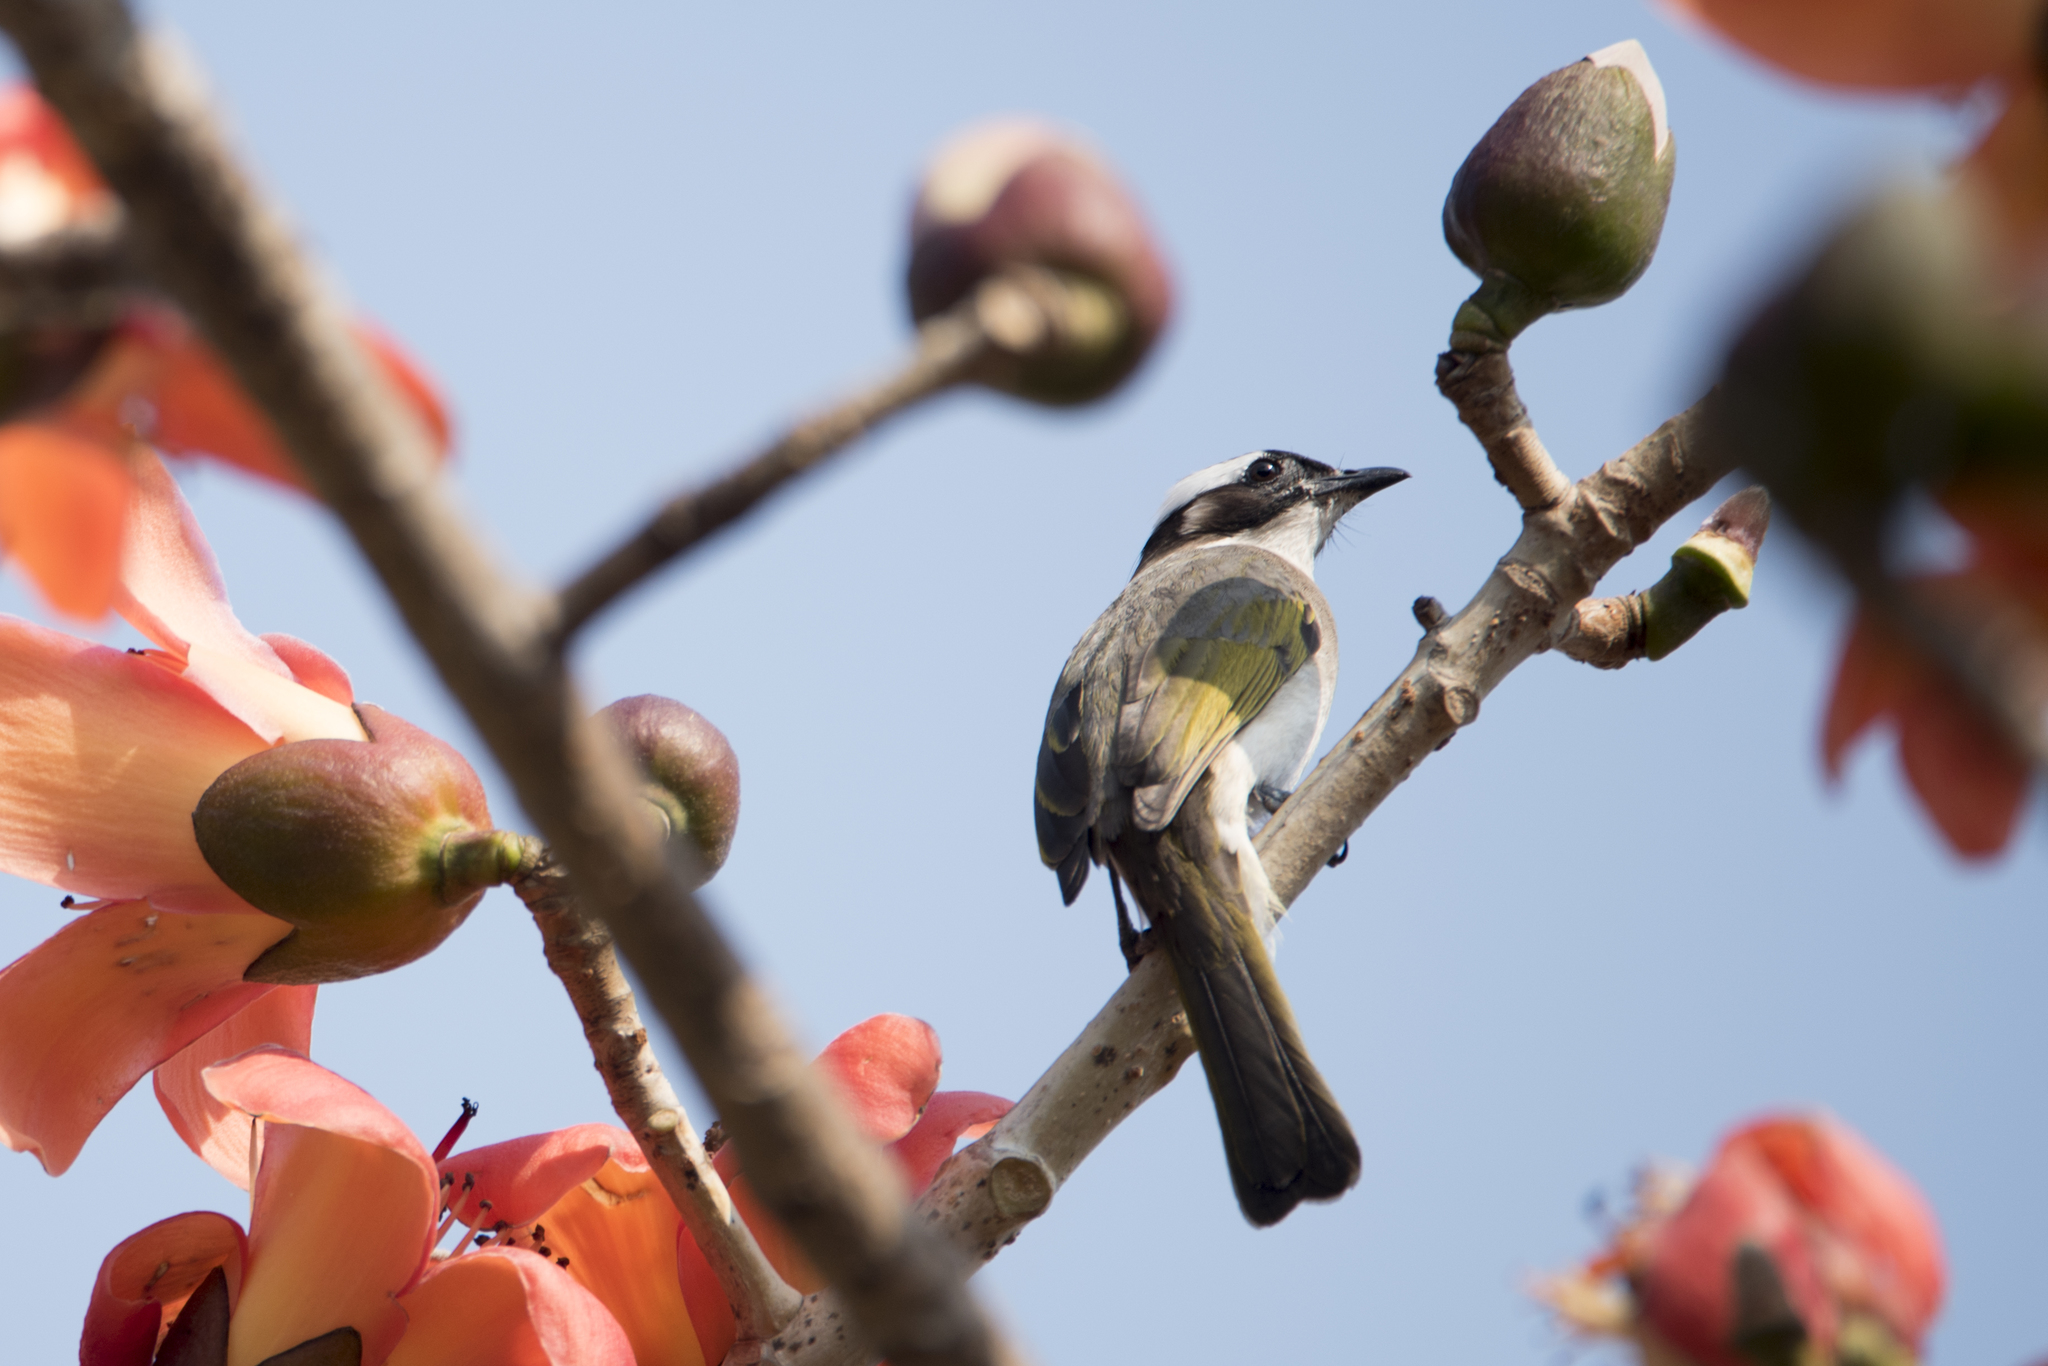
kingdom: Animalia
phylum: Chordata
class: Aves
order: Passeriformes
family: Pycnonotidae
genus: Pycnonotus
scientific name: Pycnonotus sinensis
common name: Light-vented bulbul
